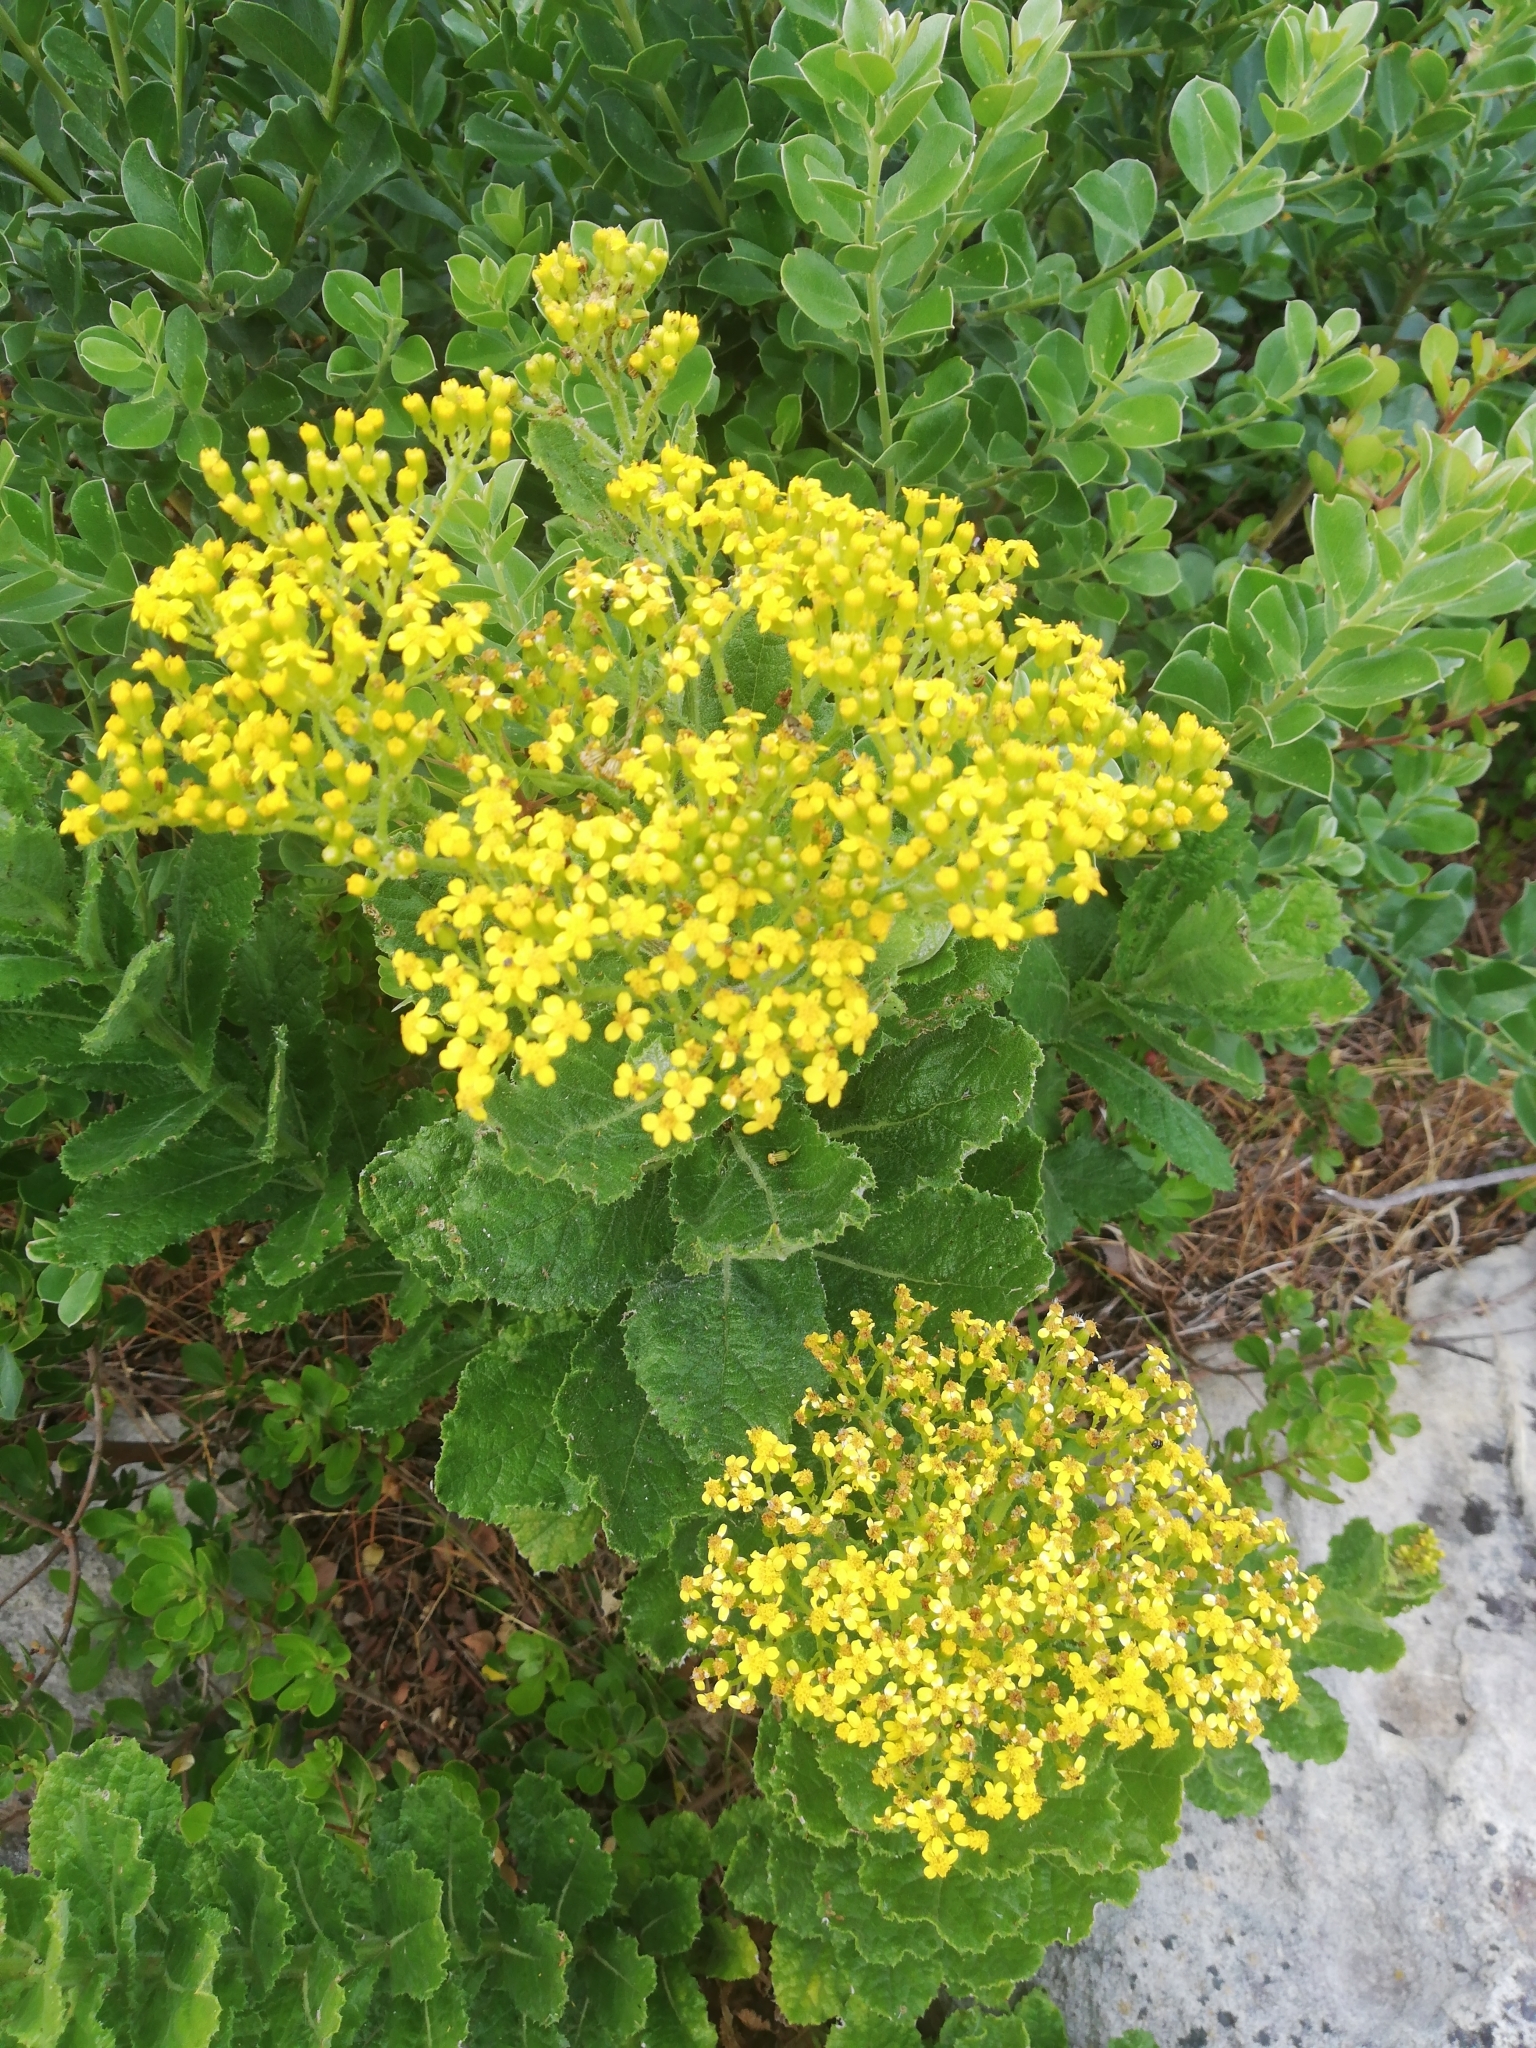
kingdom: Plantae
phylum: Tracheophyta
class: Magnoliopsida
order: Asterales
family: Asteraceae
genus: Senecio
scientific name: Senecio rigidus
